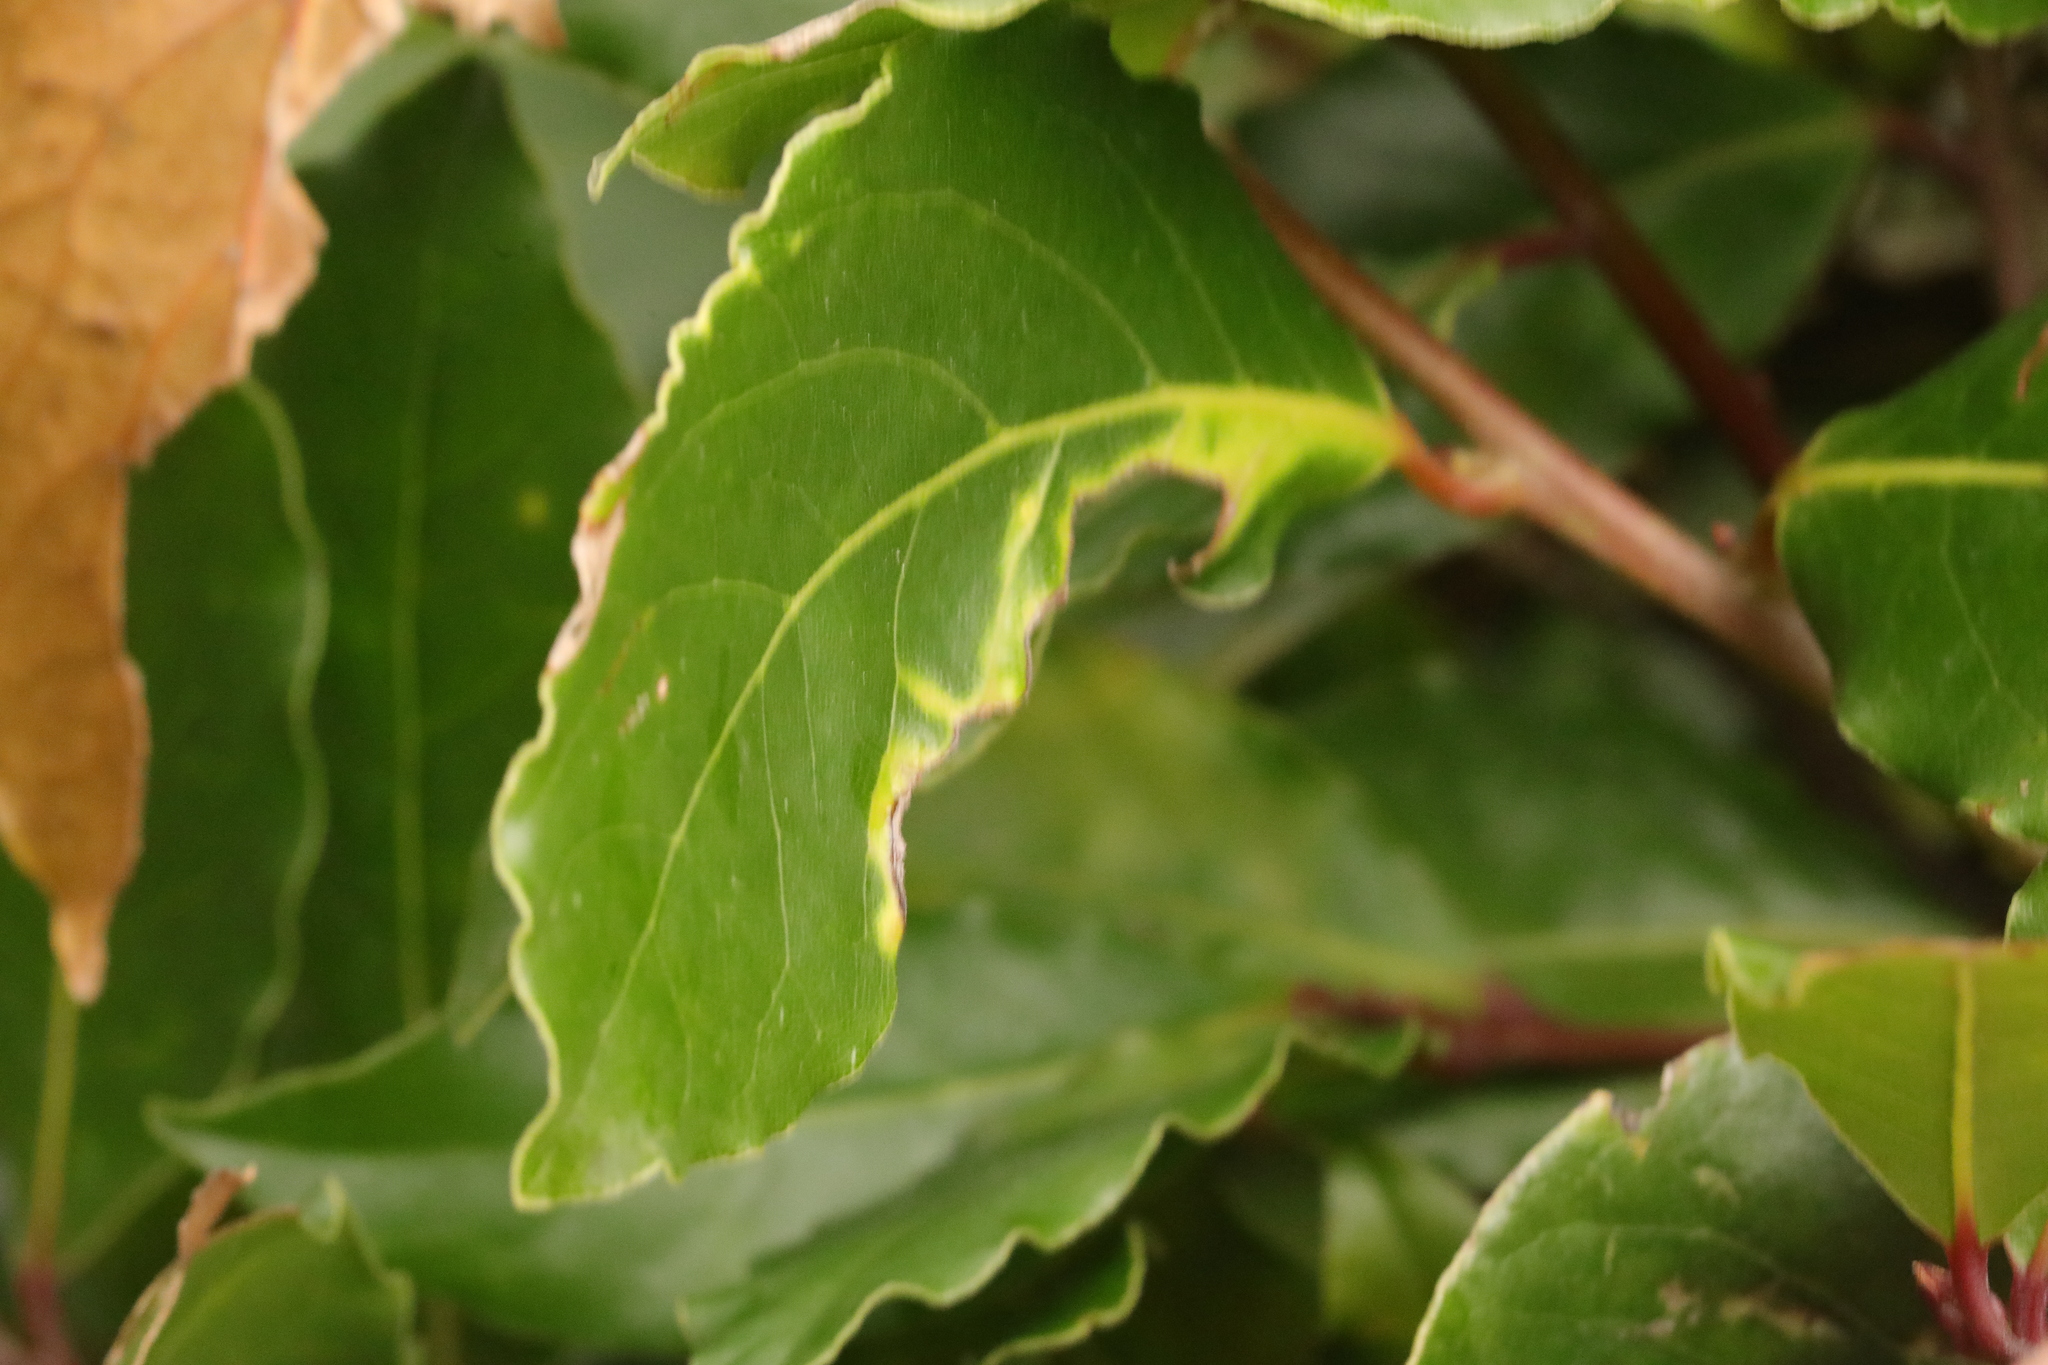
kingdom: Animalia
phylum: Arthropoda
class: Insecta
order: Hemiptera
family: Triozidae
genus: Lauritrioza
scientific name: Lauritrioza alacris
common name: Laurel psyllid
